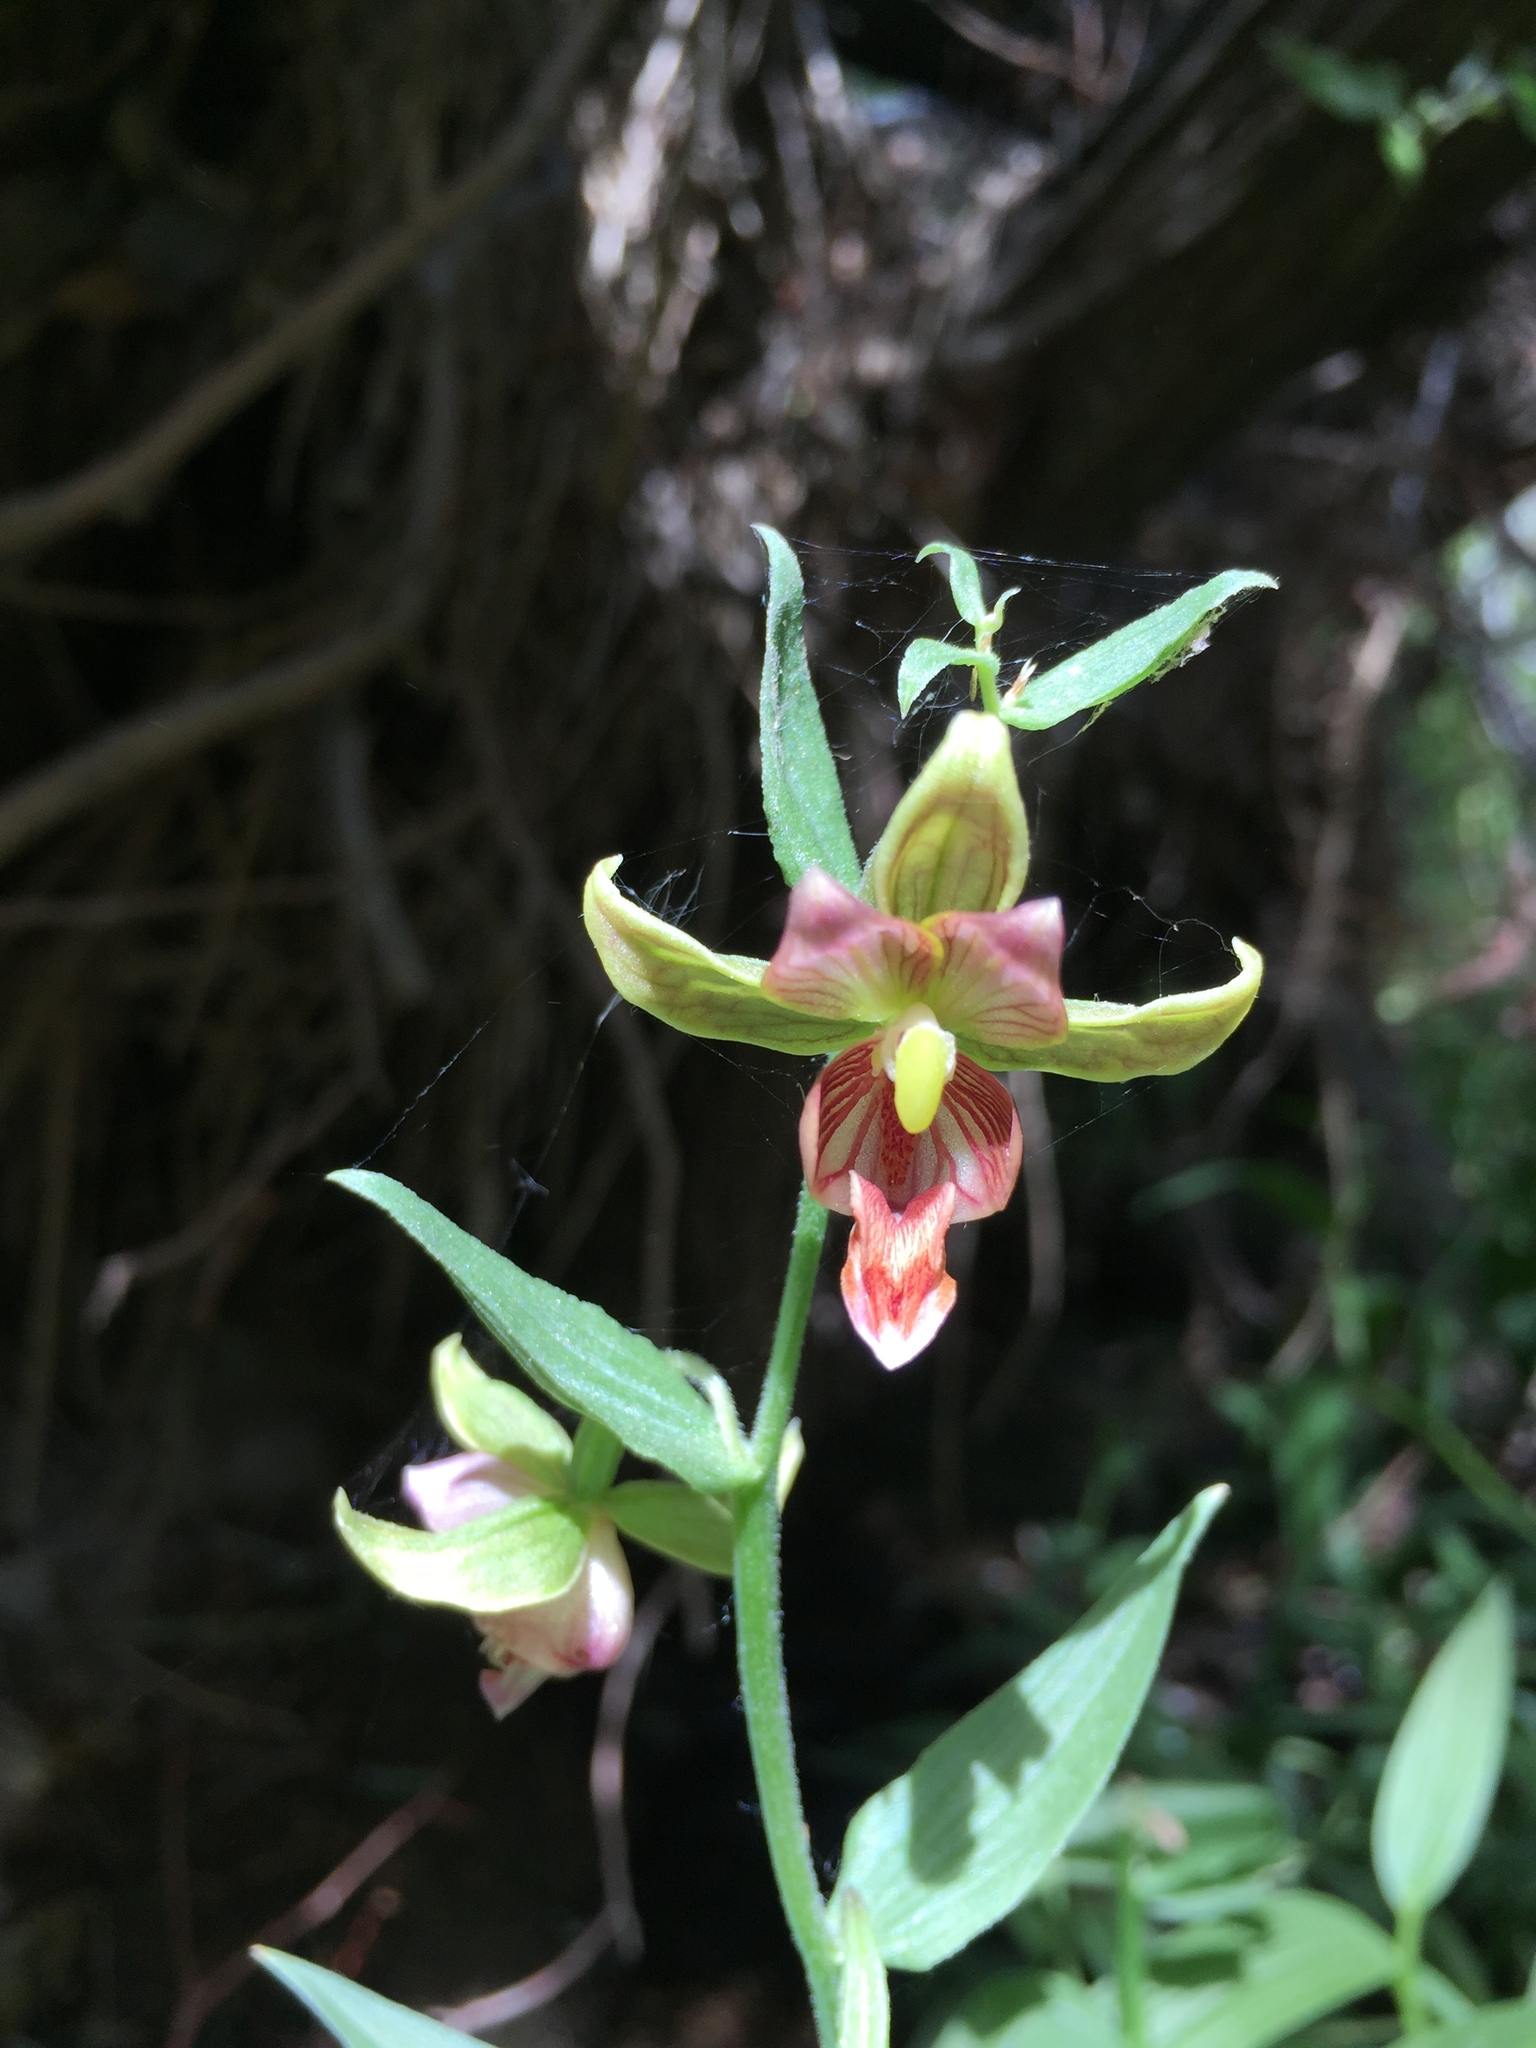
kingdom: Plantae
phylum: Tracheophyta
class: Liliopsida
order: Asparagales
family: Orchidaceae
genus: Epipactis
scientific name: Epipactis gigantea
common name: Chatterbox
